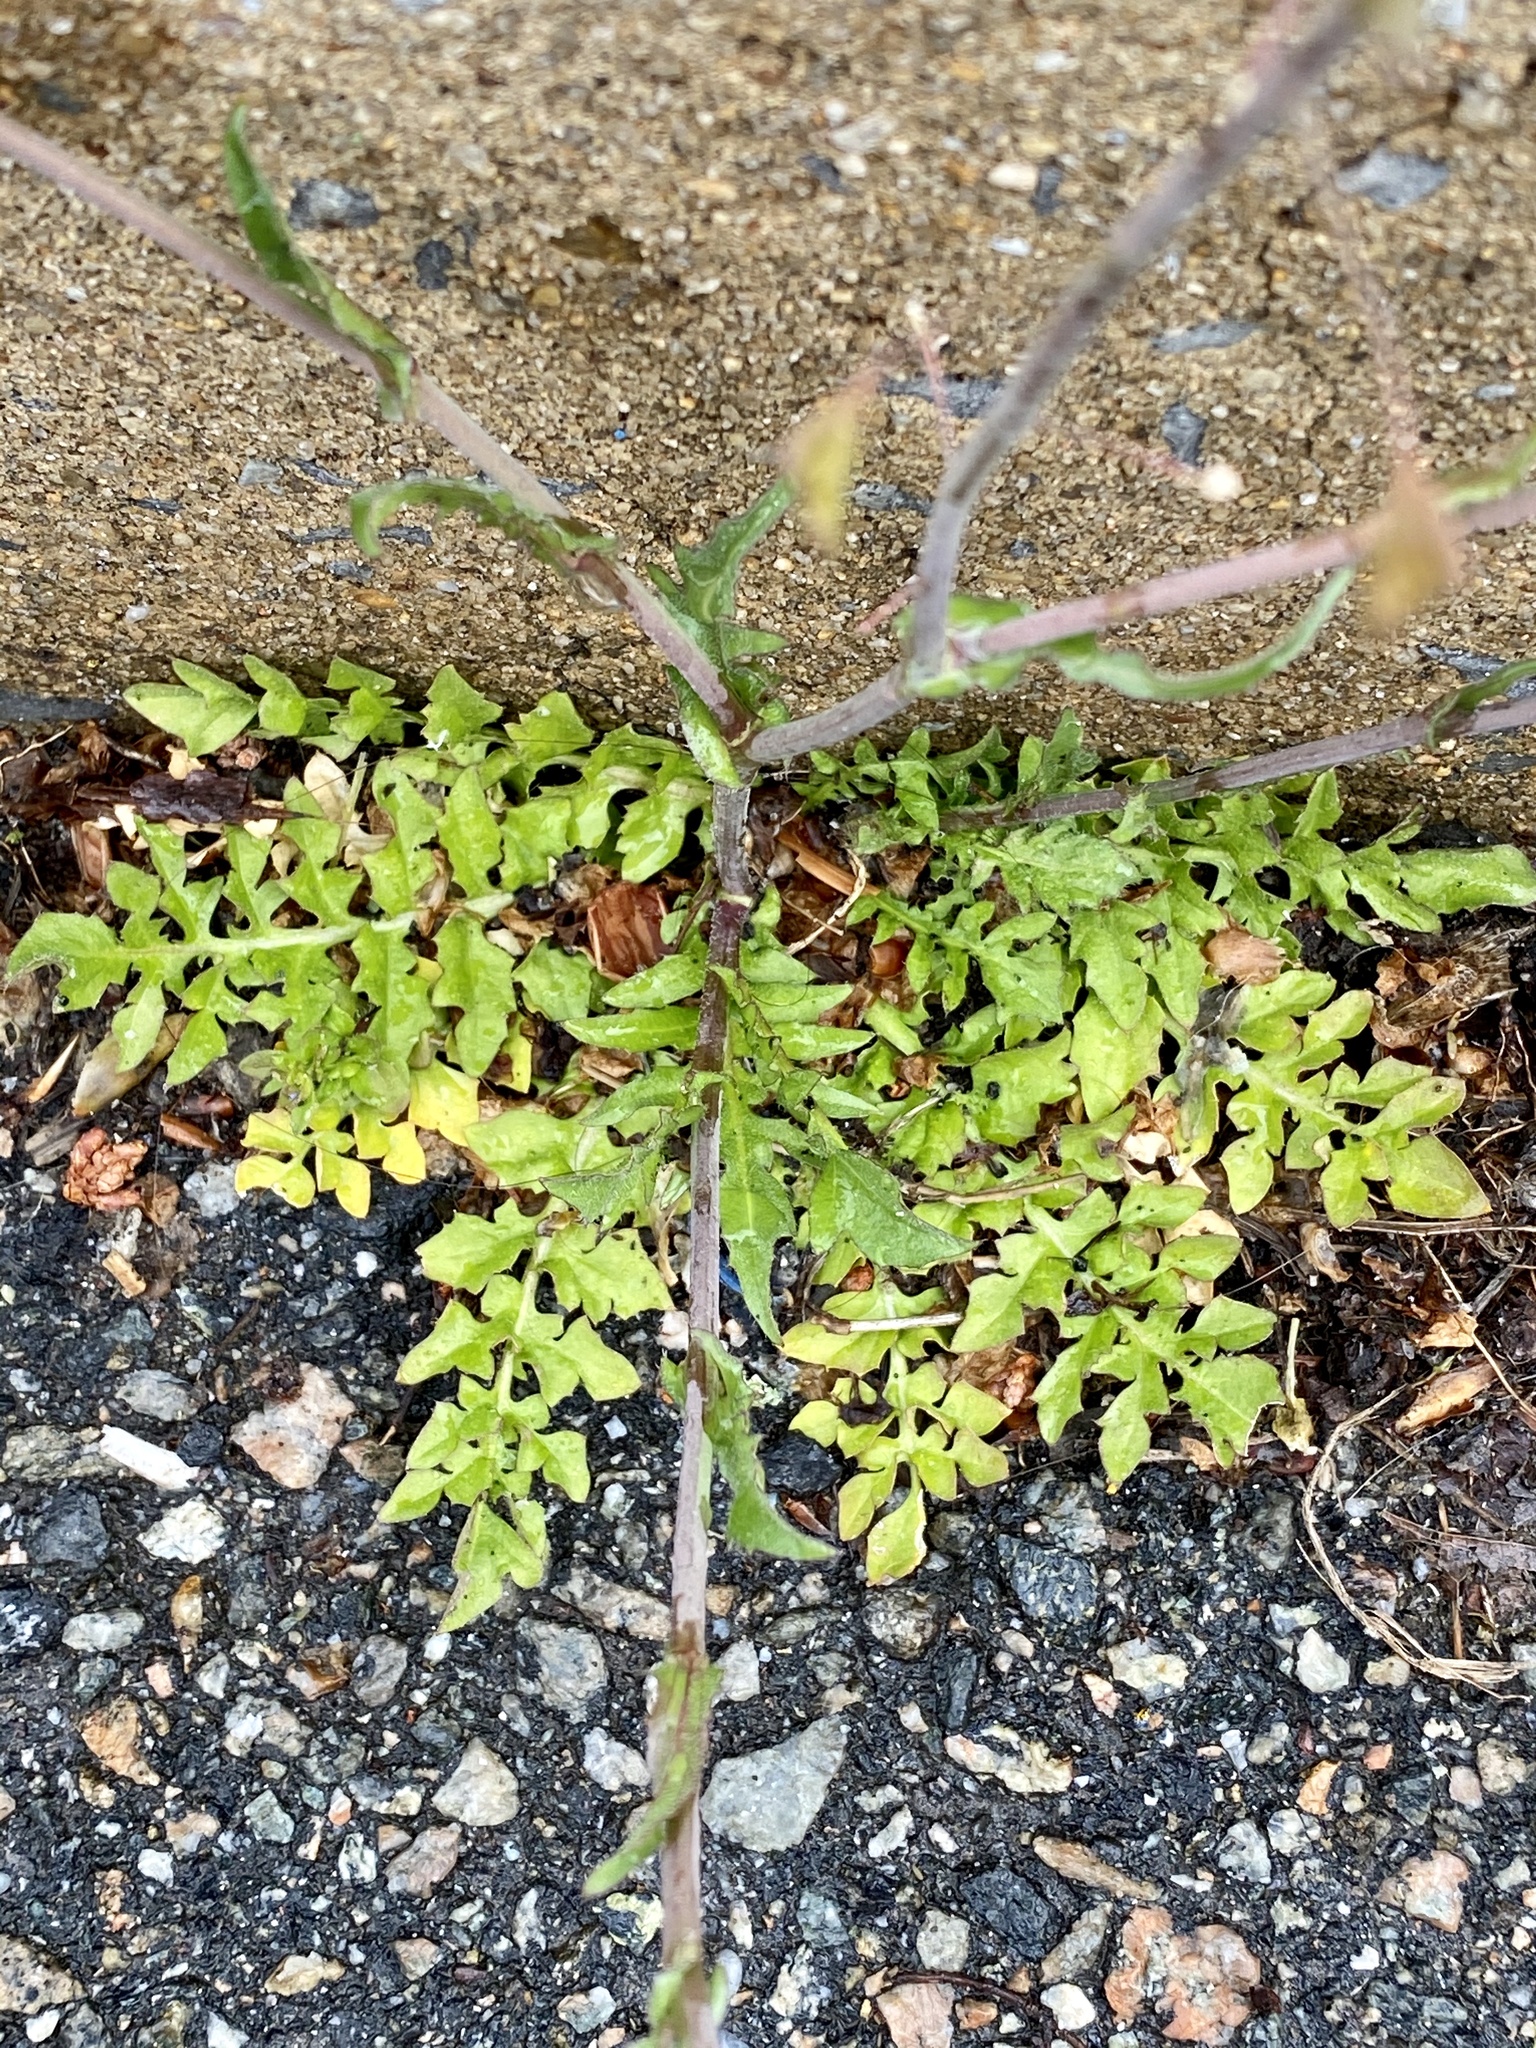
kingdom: Plantae
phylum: Tracheophyta
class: Magnoliopsida
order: Brassicales
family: Brassicaceae
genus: Capsella
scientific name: Capsella bursa-pastoris
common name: Shepherd's purse
